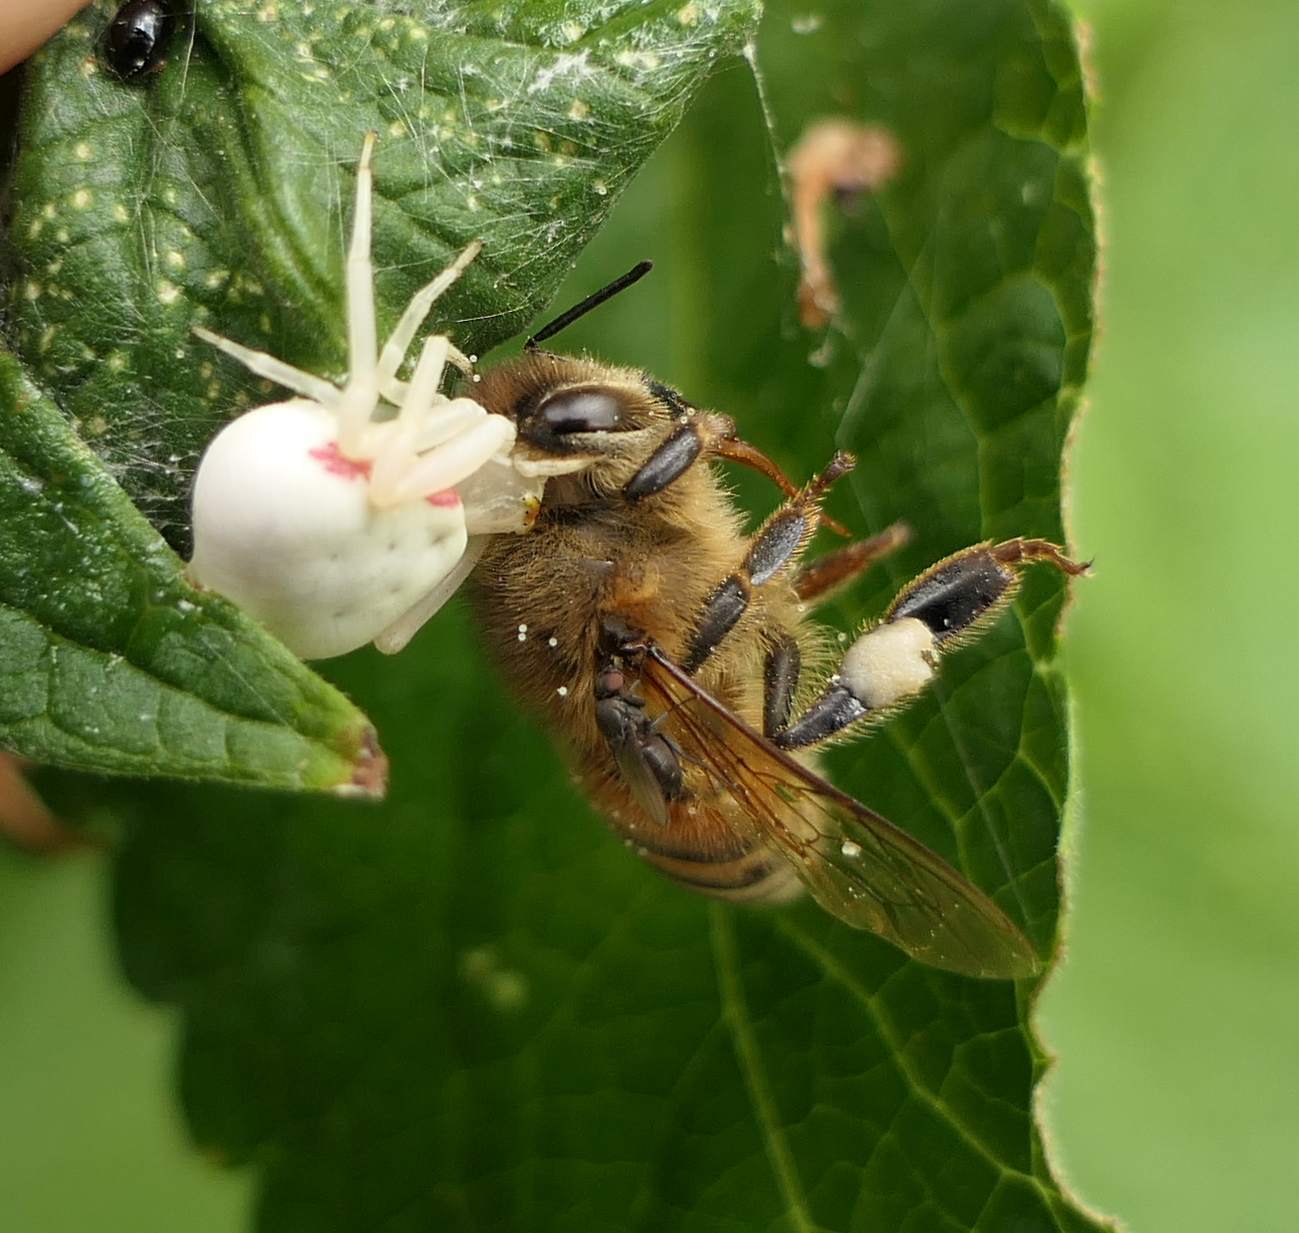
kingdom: Animalia
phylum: Arthropoda
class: Arachnida
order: Araneae
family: Thomisidae
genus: Misumena
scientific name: Misumena vatia
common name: Goldenrod crab spider
